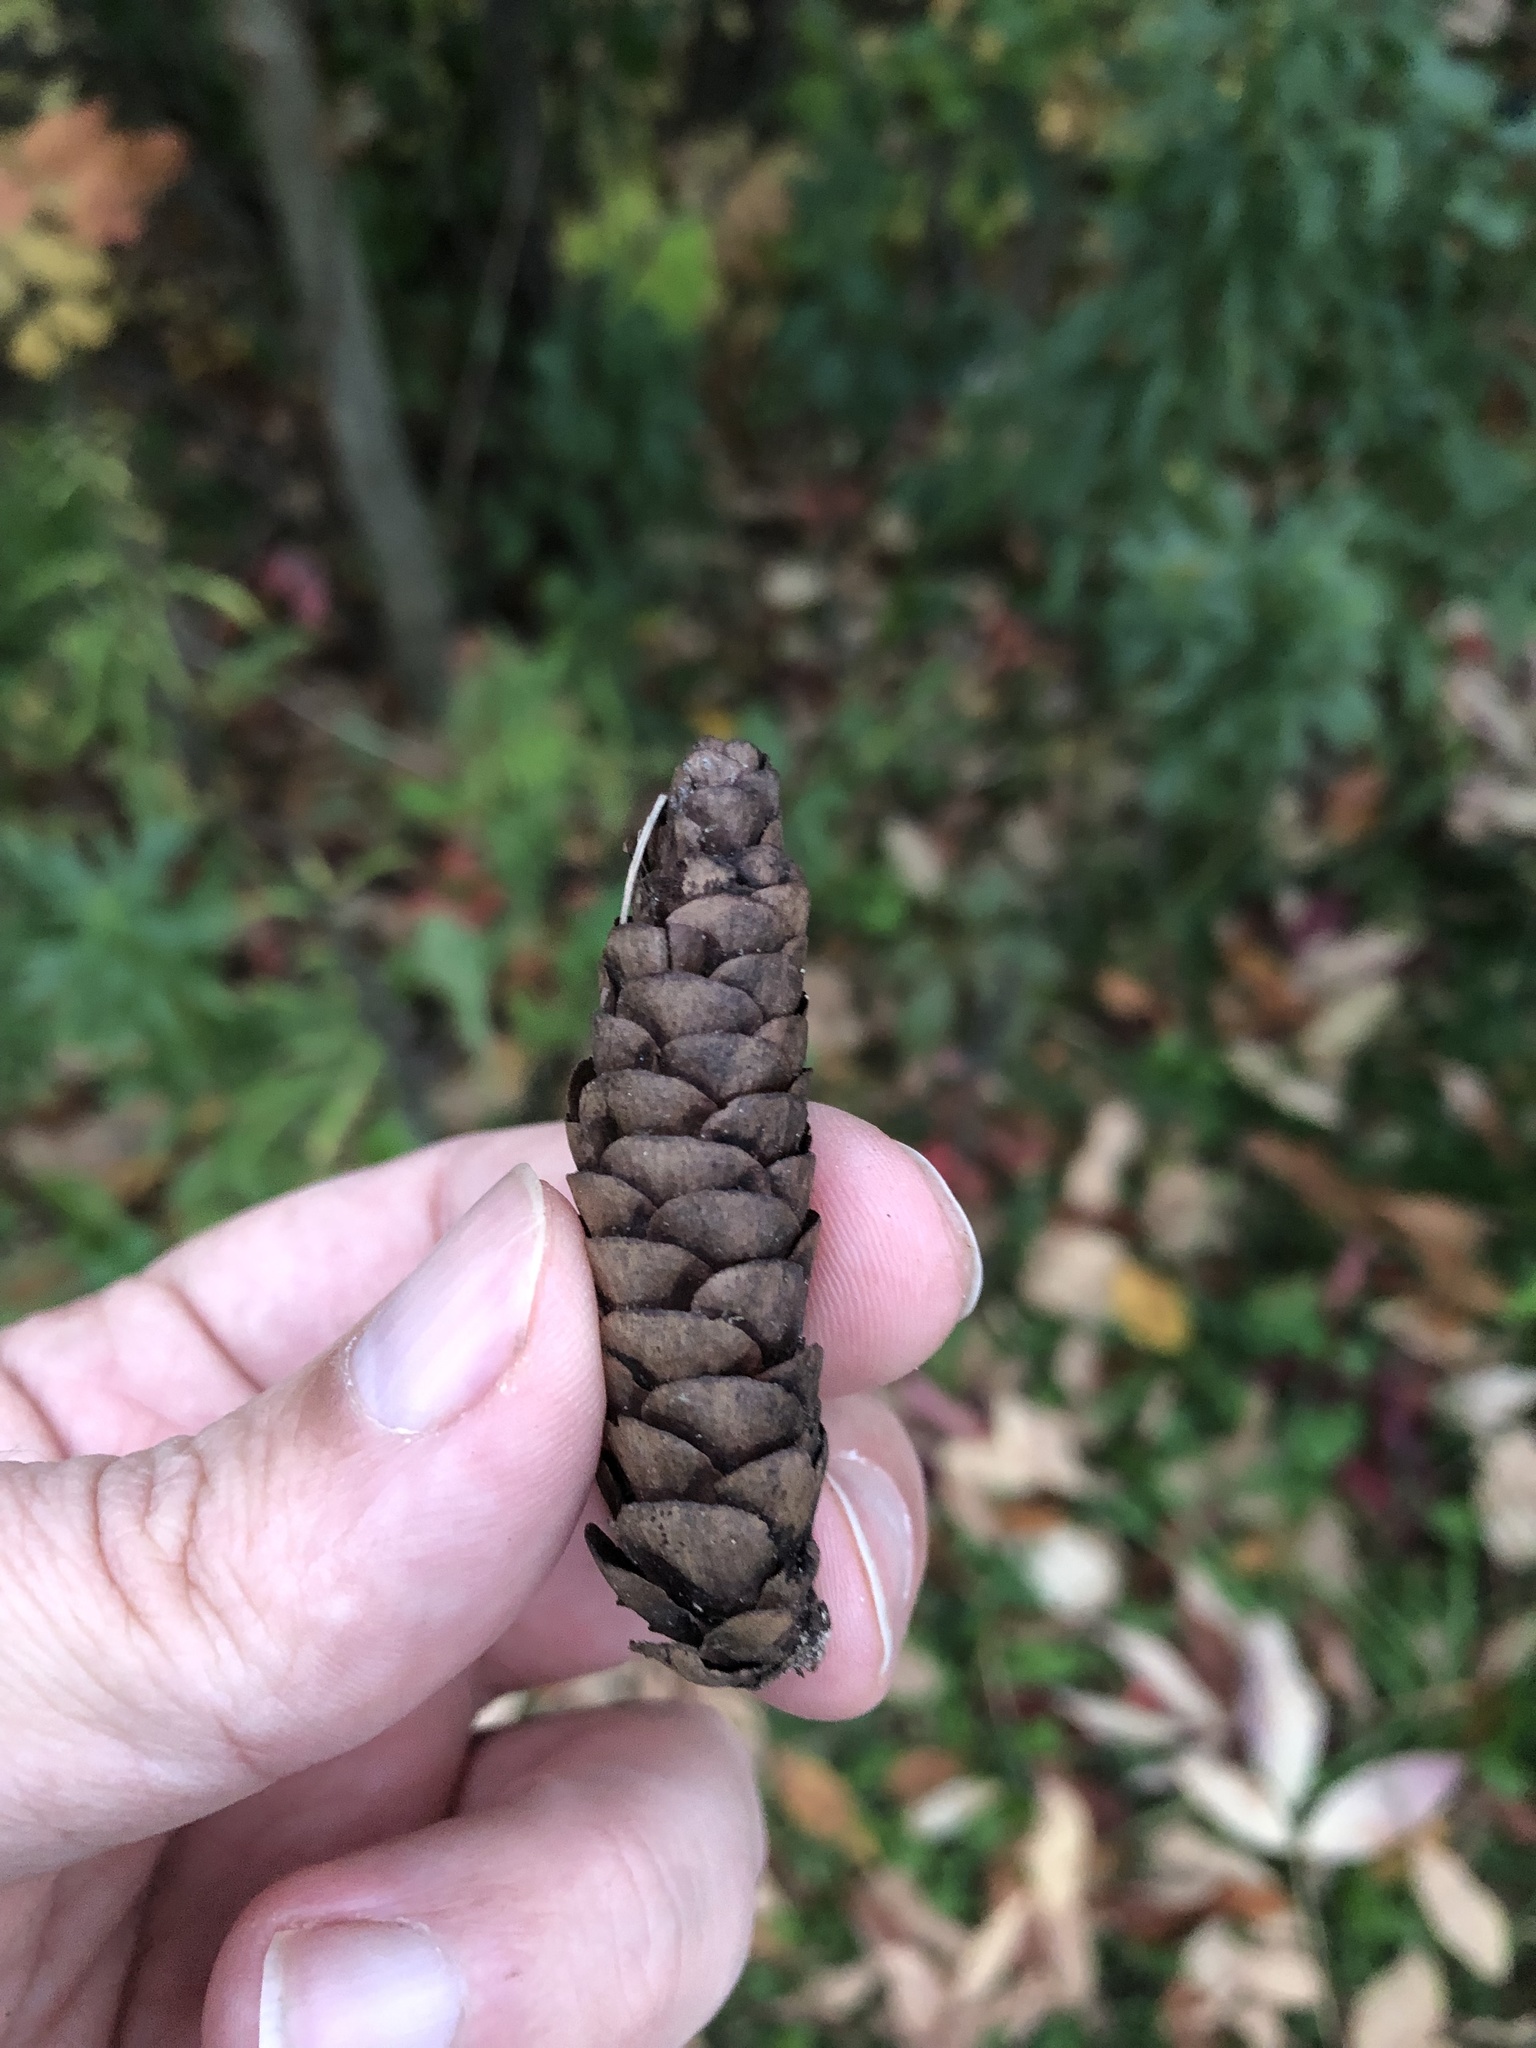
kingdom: Plantae
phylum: Tracheophyta
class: Pinopsida
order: Pinales
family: Pinaceae
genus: Picea
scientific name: Picea glauca
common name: White spruce
